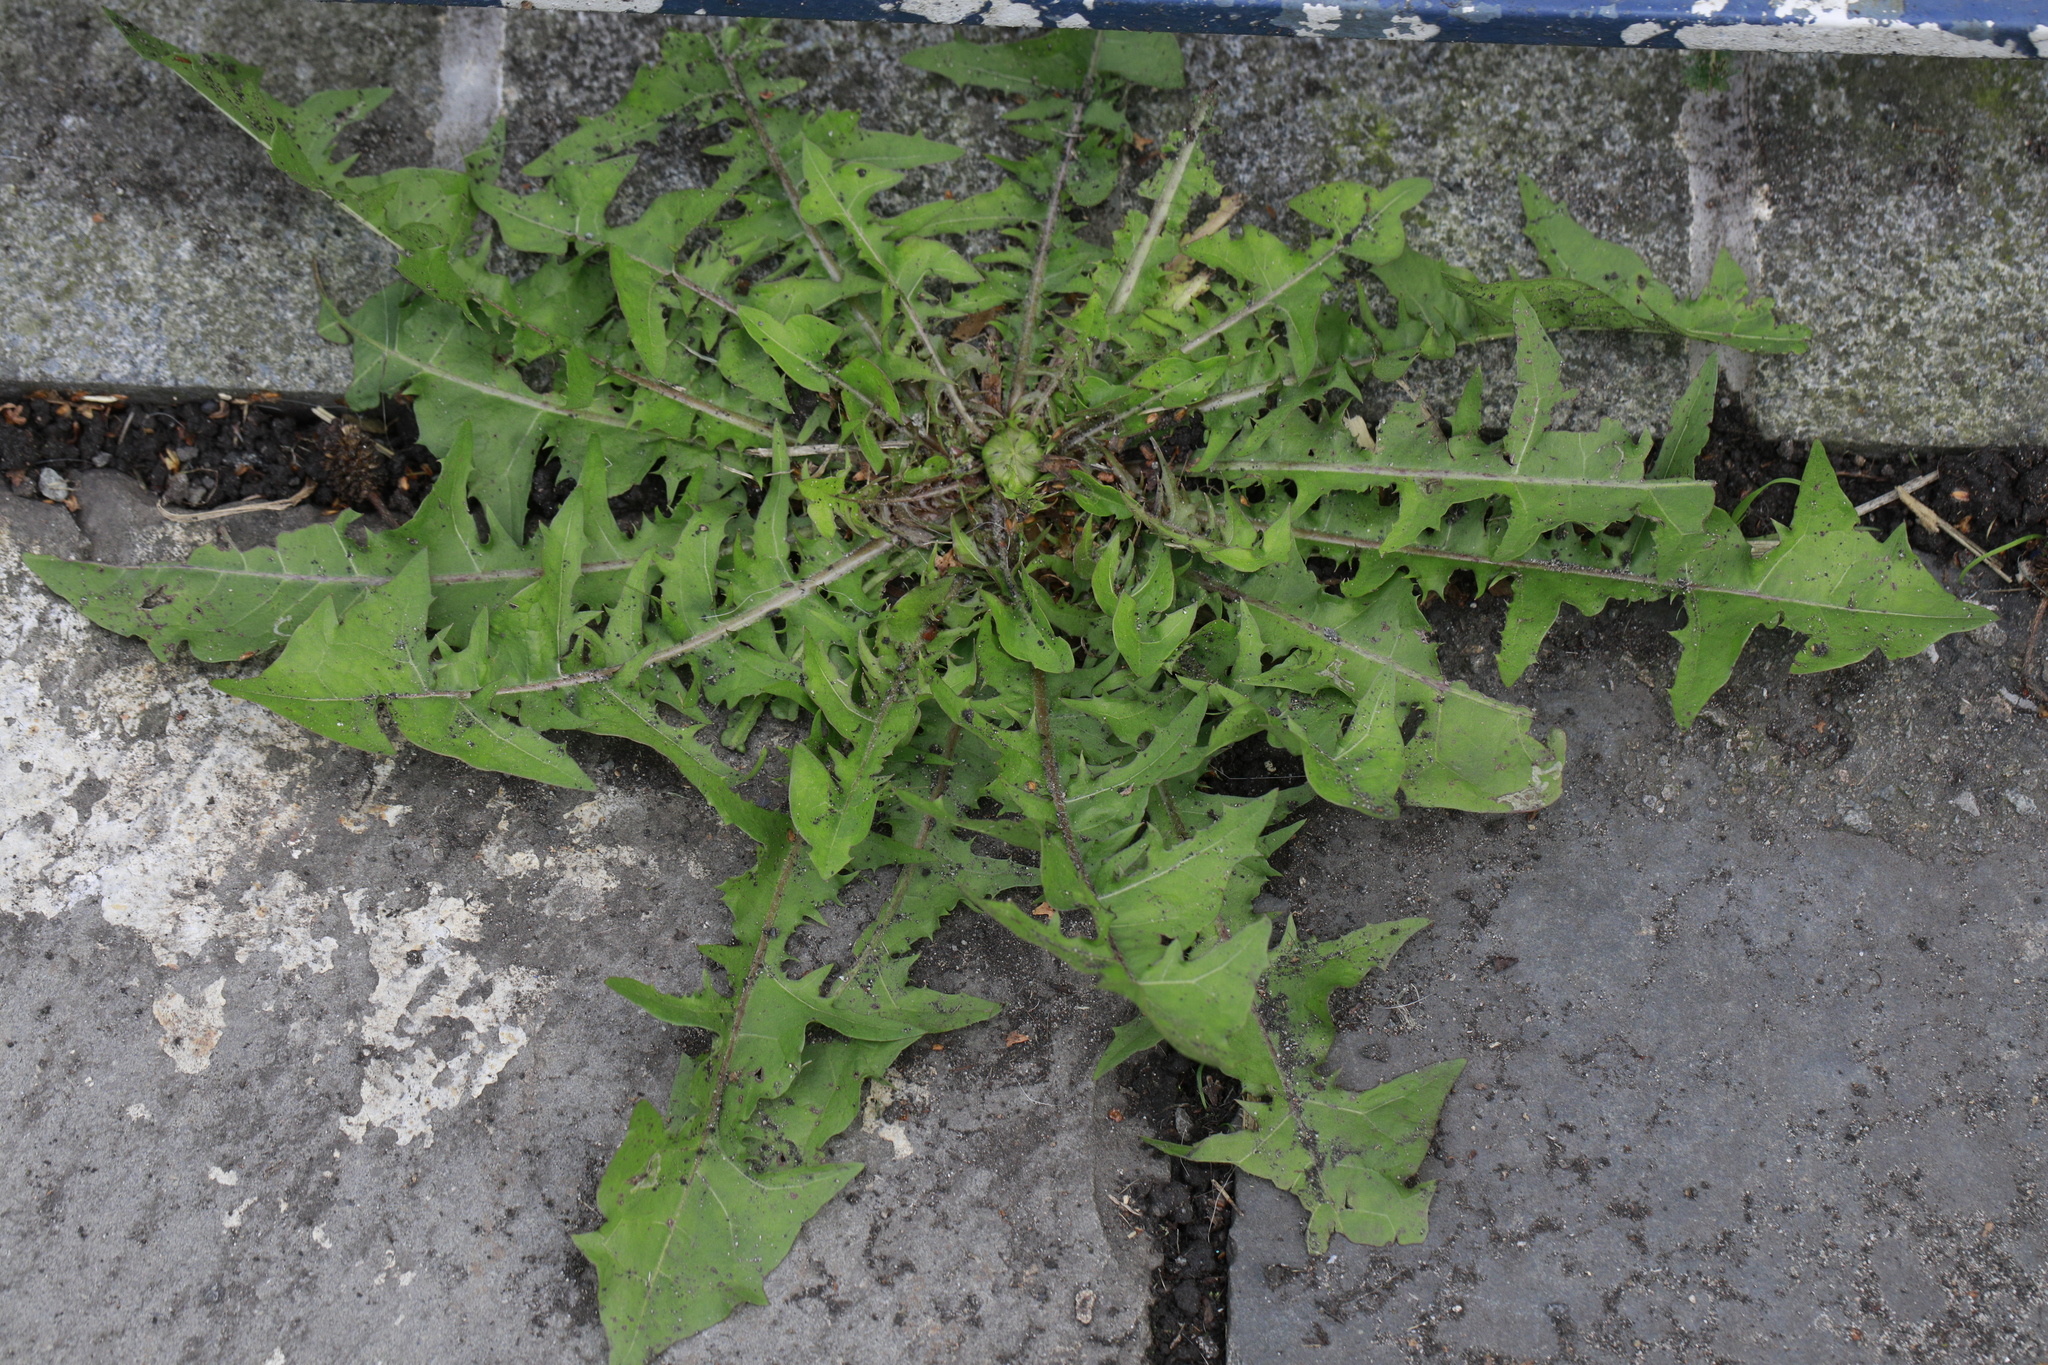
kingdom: Plantae
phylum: Tracheophyta
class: Magnoliopsida
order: Asterales
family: Asteraceae
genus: Taraxacum
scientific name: Taraxacum officinale
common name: Common dandelion
